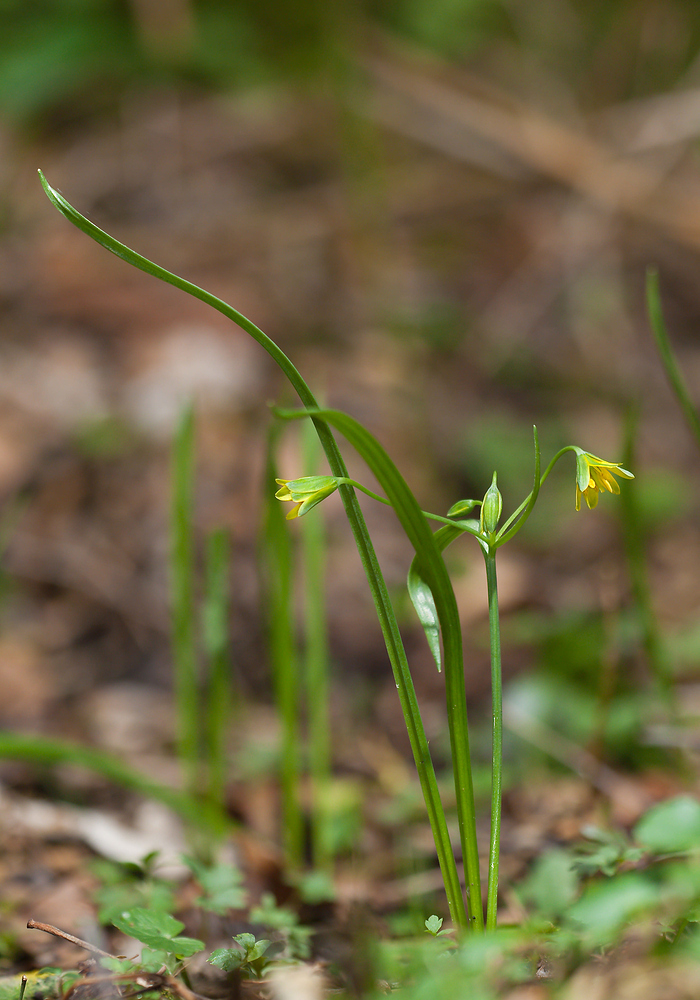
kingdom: Plantae
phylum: Tracheophyta
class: Liliopsida
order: Liliales
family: Liliaceae
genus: Gagea
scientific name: Gagea lutea
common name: Yellow star-of-bethlehem
